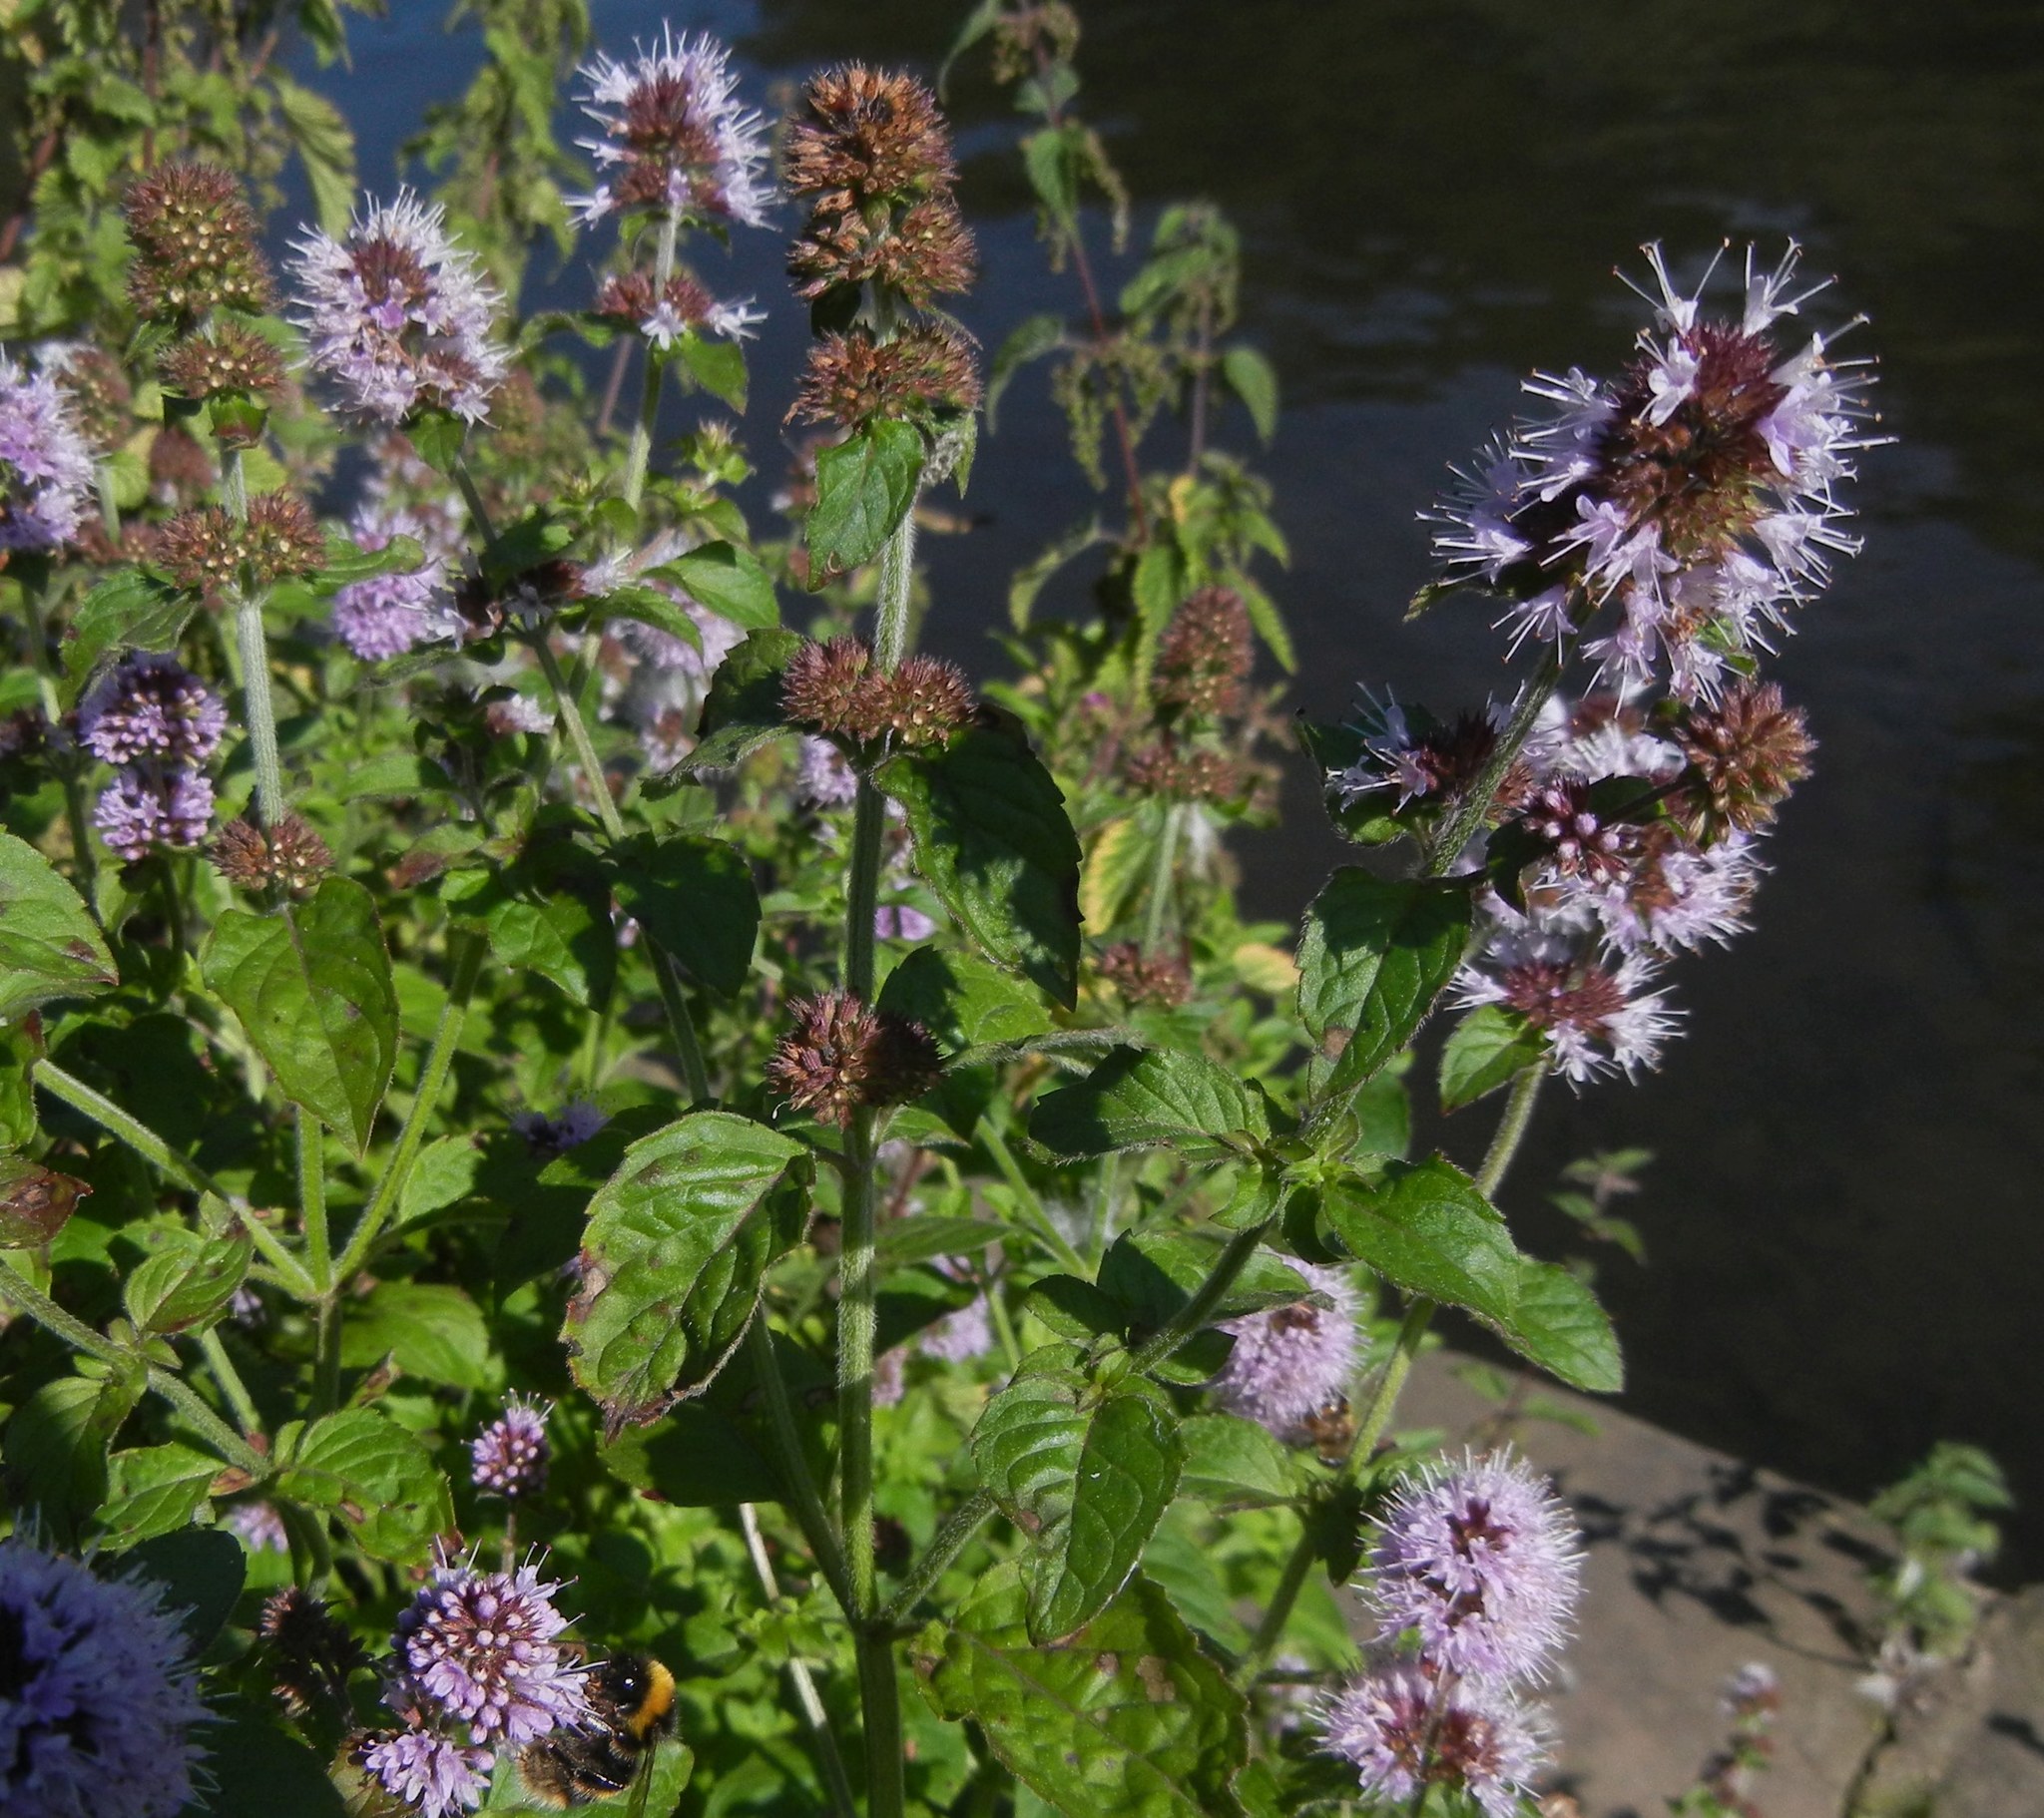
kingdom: Plantae
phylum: Tracheophyta
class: Magnoliopsida
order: Lamiales
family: Lamiaceae
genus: Mentha
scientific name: Mentha aquatica
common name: Water mint
